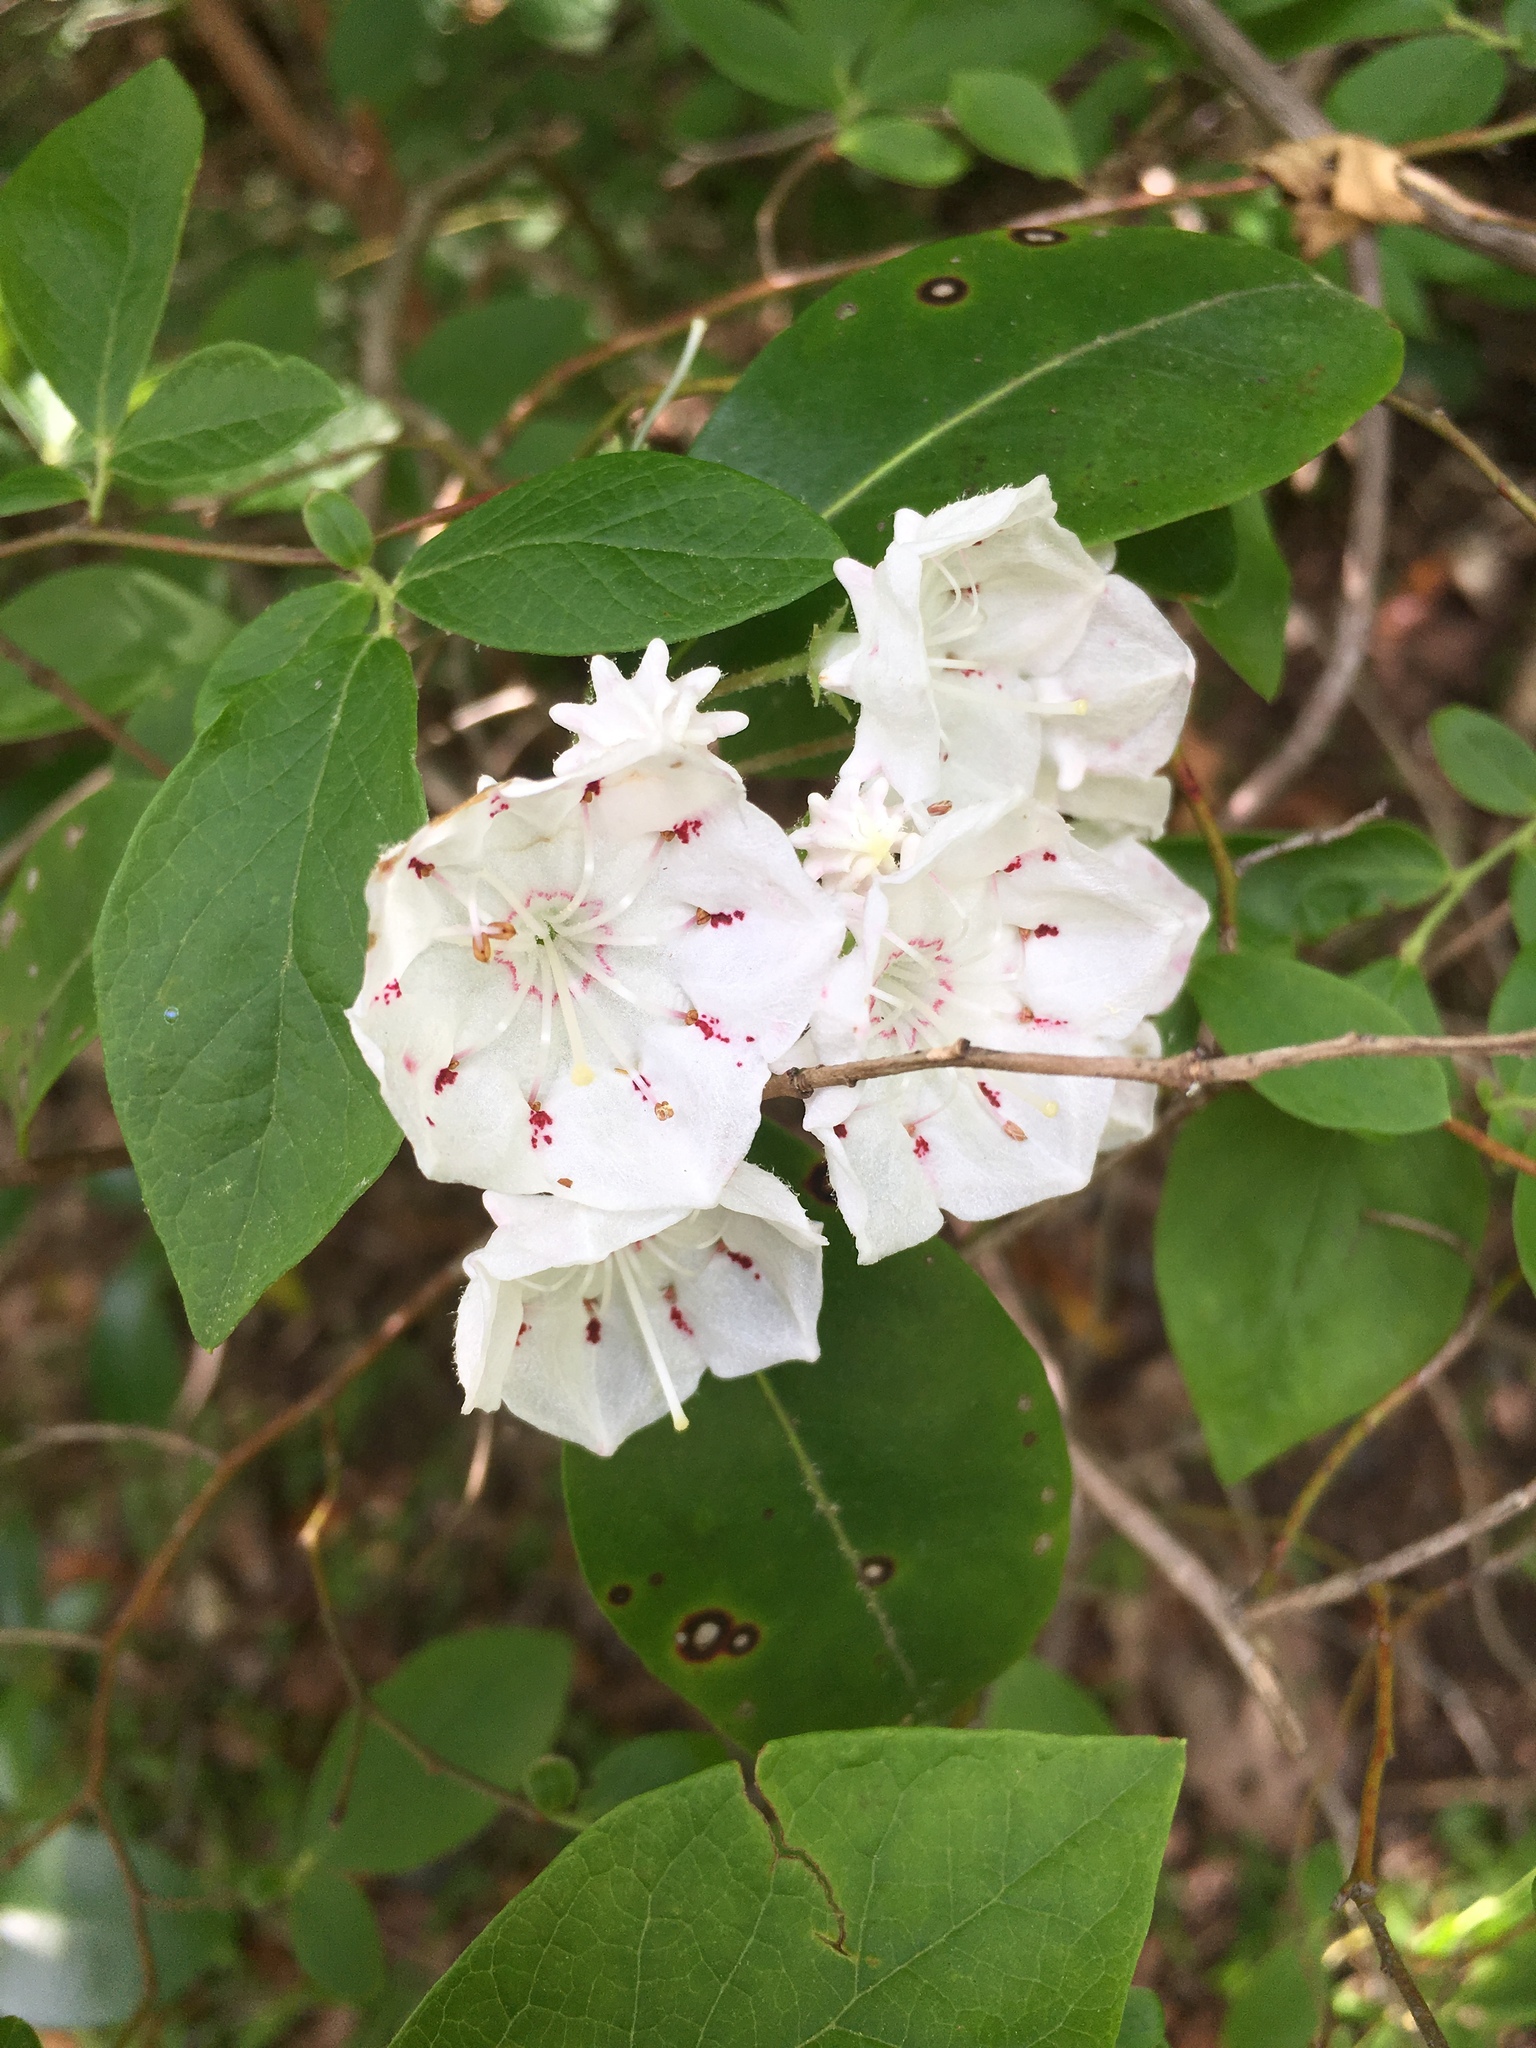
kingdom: Plantae
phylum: Tracheophyta
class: Magnoliopsida
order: Ericales
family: Ericaceae
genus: Kalmia
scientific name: Kalmia latifolia
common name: Mountain-laurel
